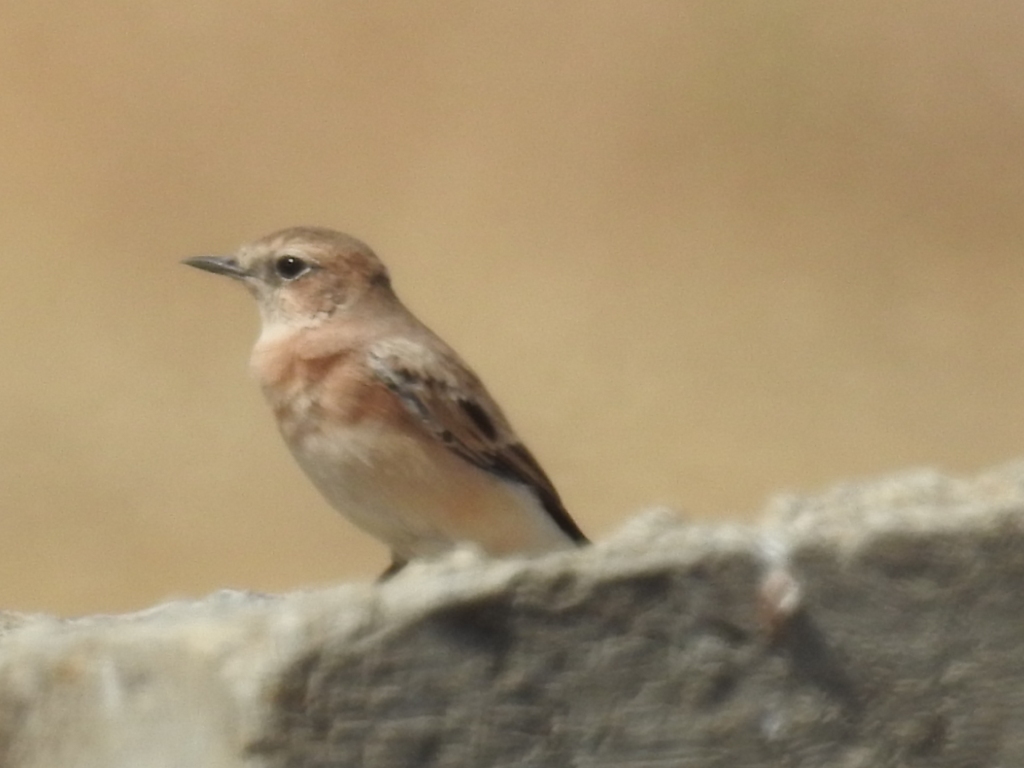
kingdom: Animalia
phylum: Chordata
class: Aves
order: Passeriformes
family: Muscicapidae
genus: Oenanthe
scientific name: Oenanthe hispanica
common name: Black-eared wheatear
